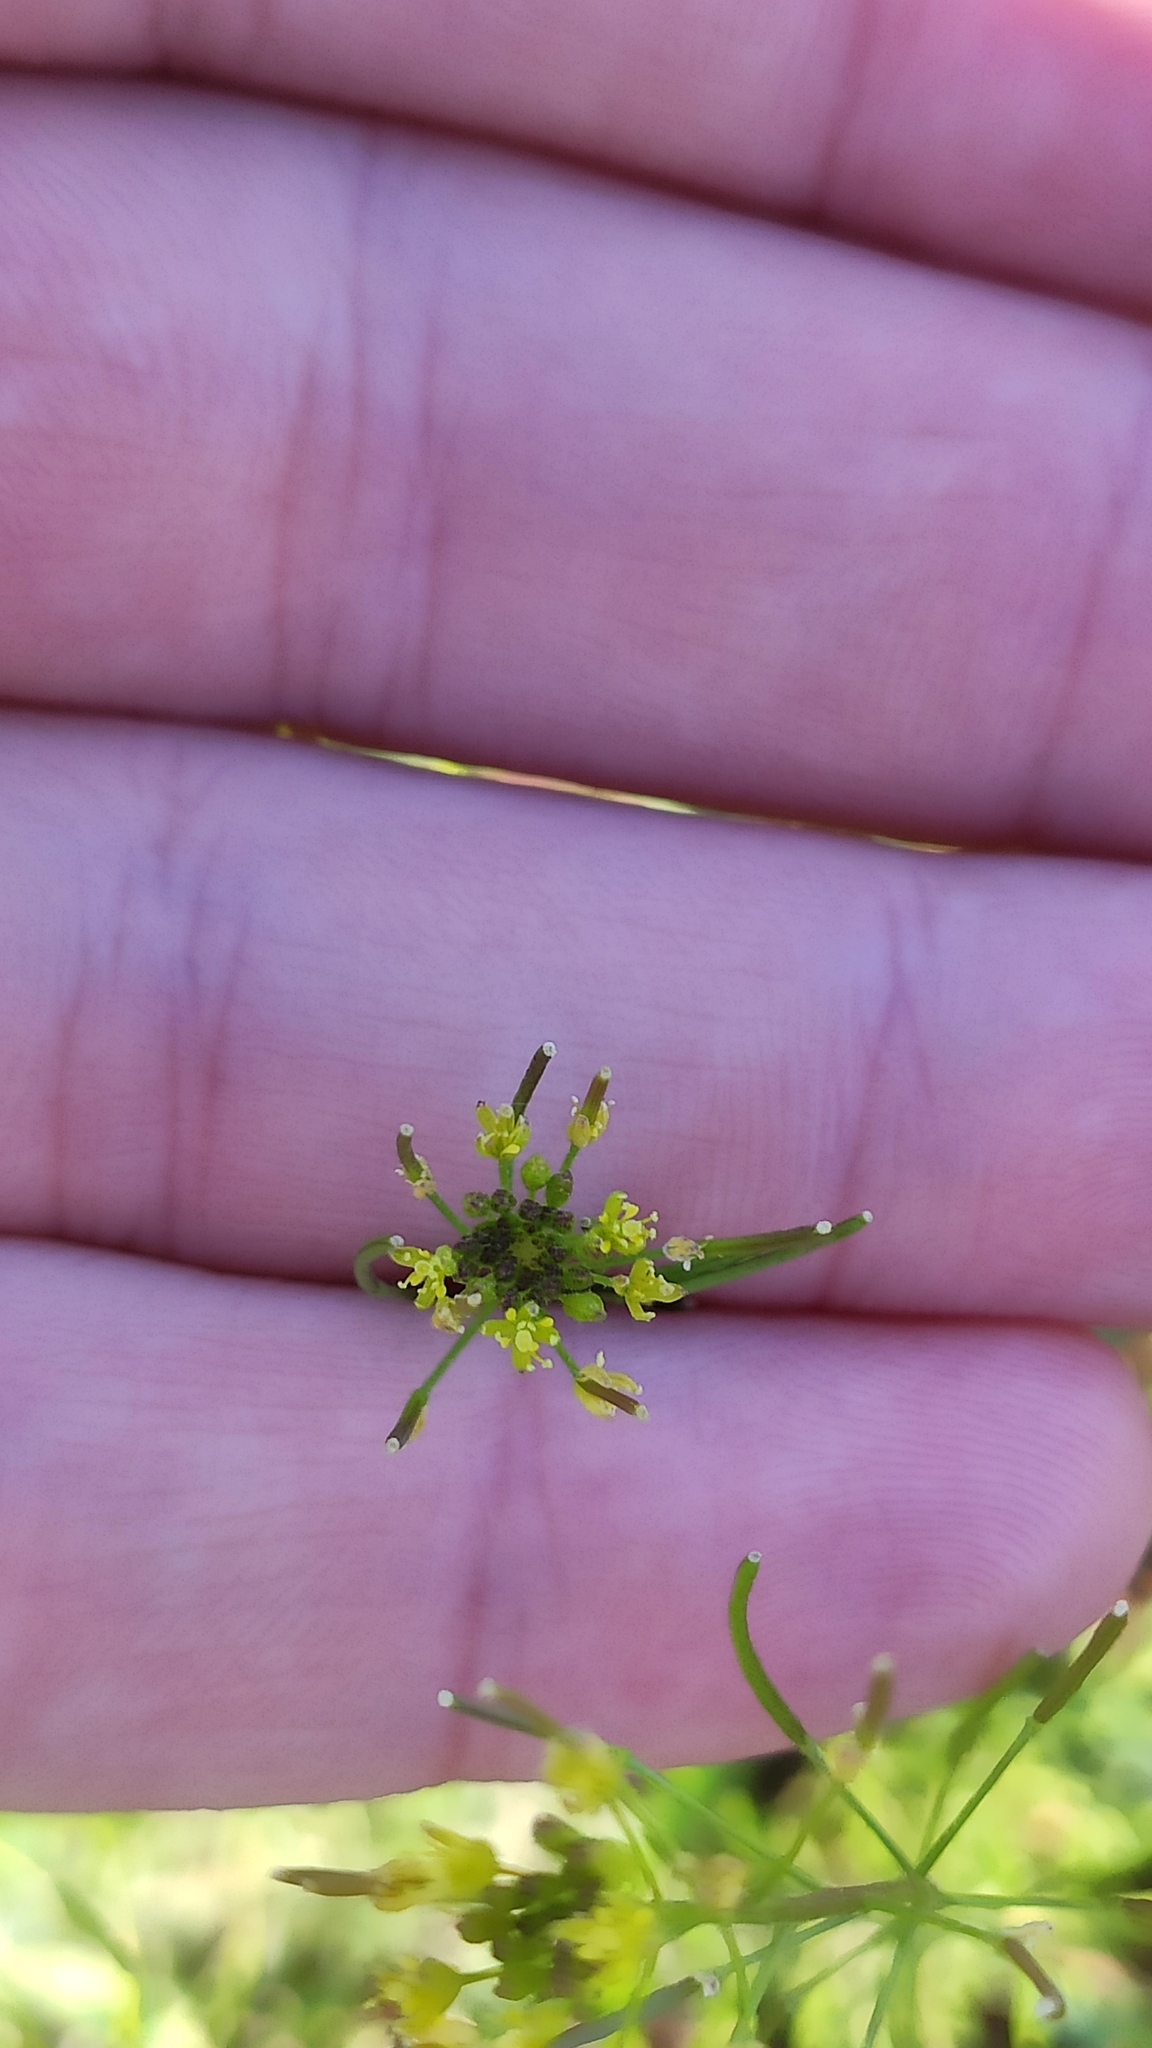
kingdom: Plantae
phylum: Tracheophyta
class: Magnoliopsida
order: Brassicales
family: Brassicaceae
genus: Descurainia
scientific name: Descurainia sophia
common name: Flixweed
